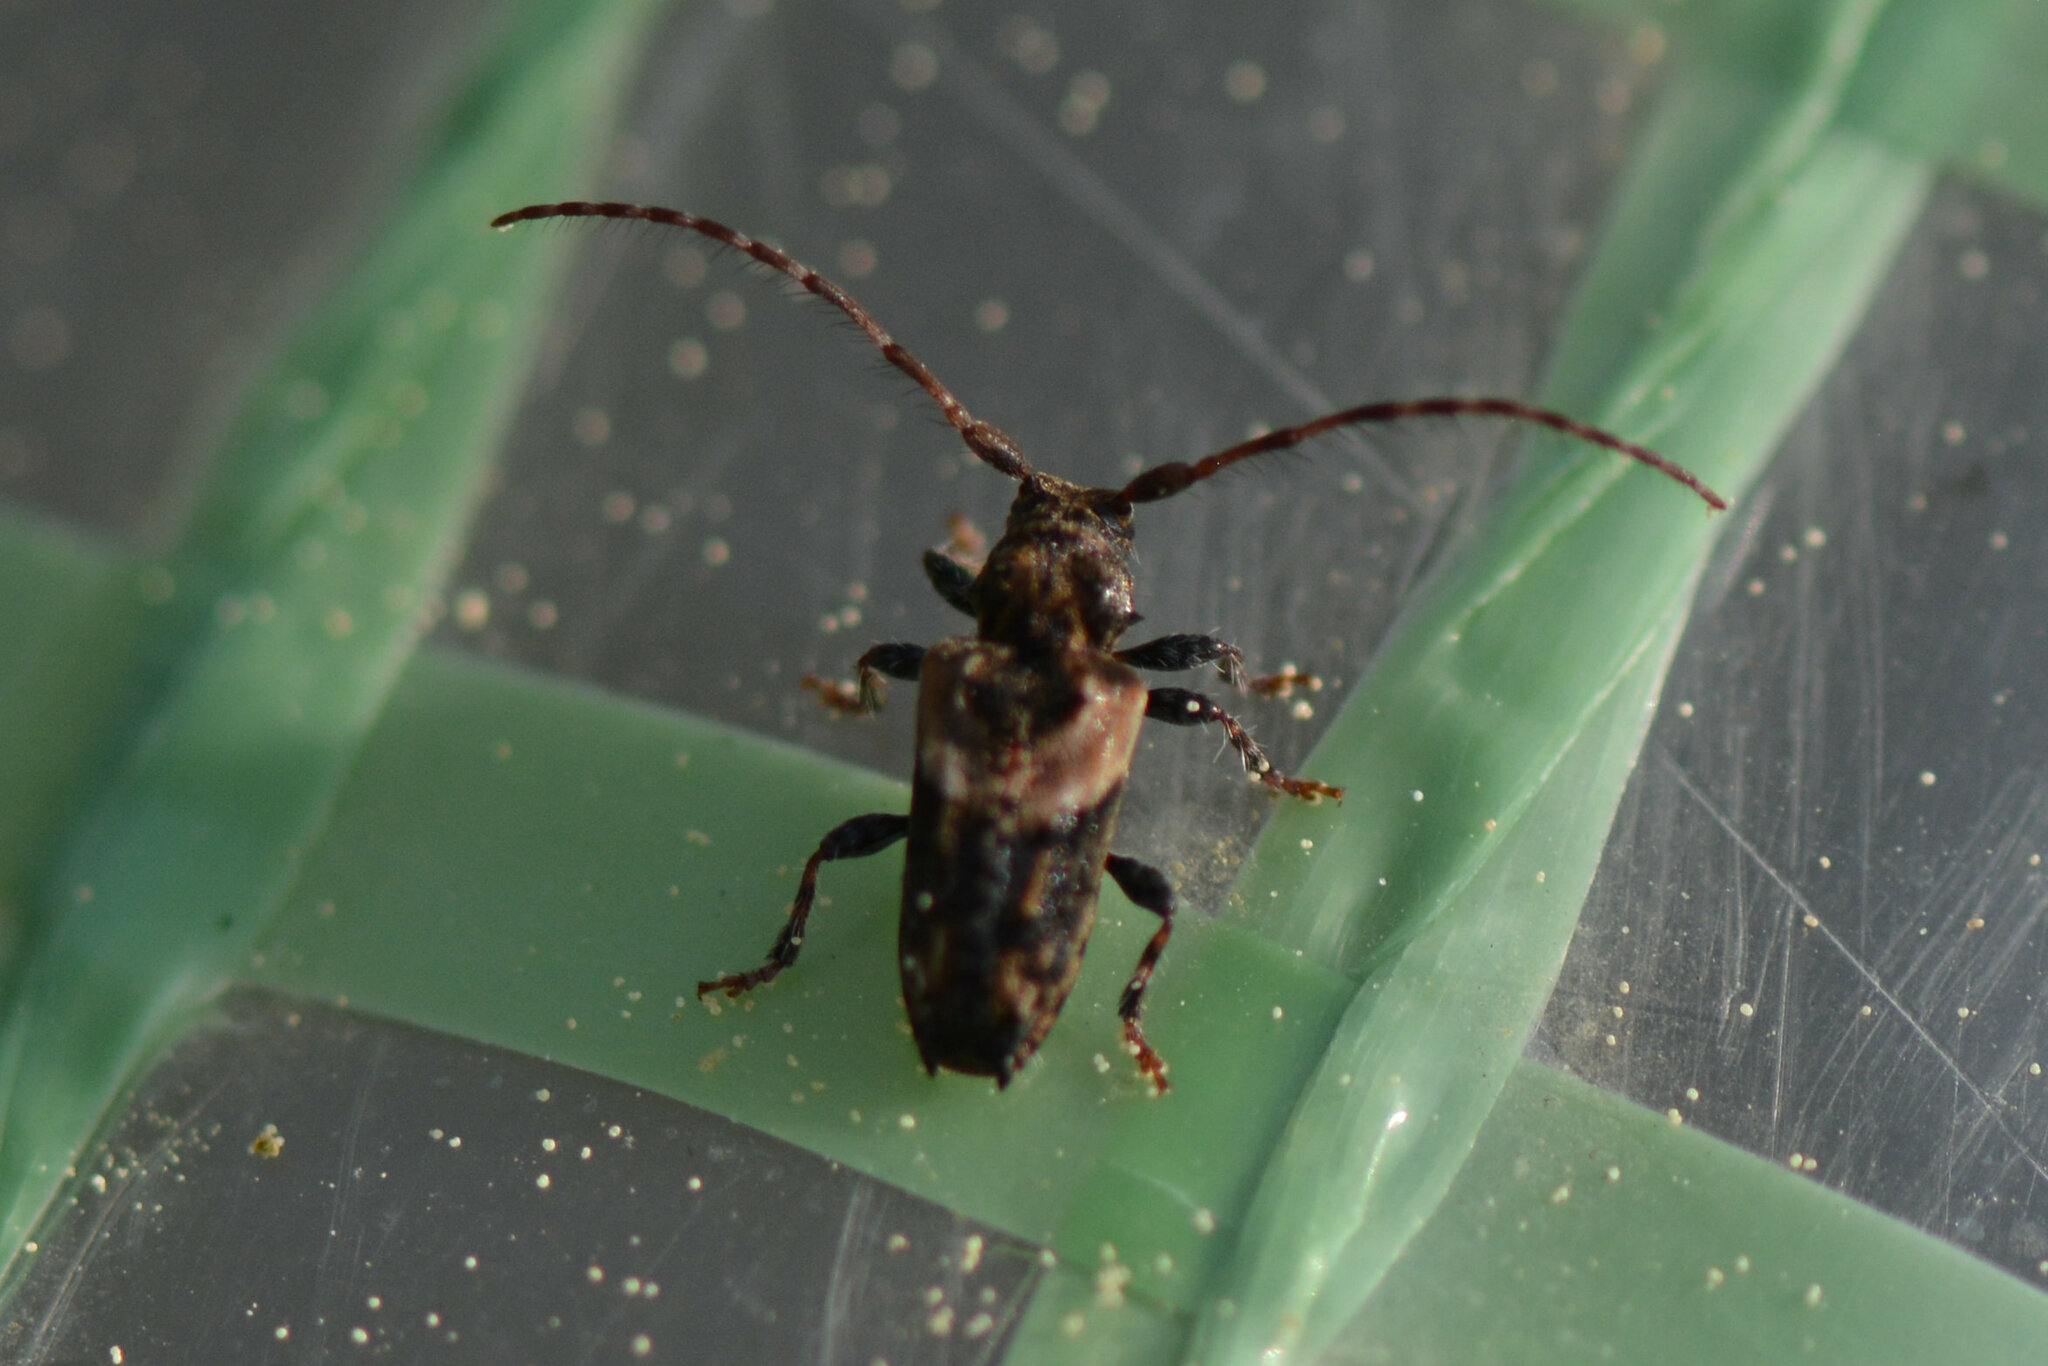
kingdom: Animalia
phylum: Arthropoda
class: Insecta
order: Coleoptera
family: Cerambycidae
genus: Pogonocherus
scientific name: Pogonocherus hispidus
